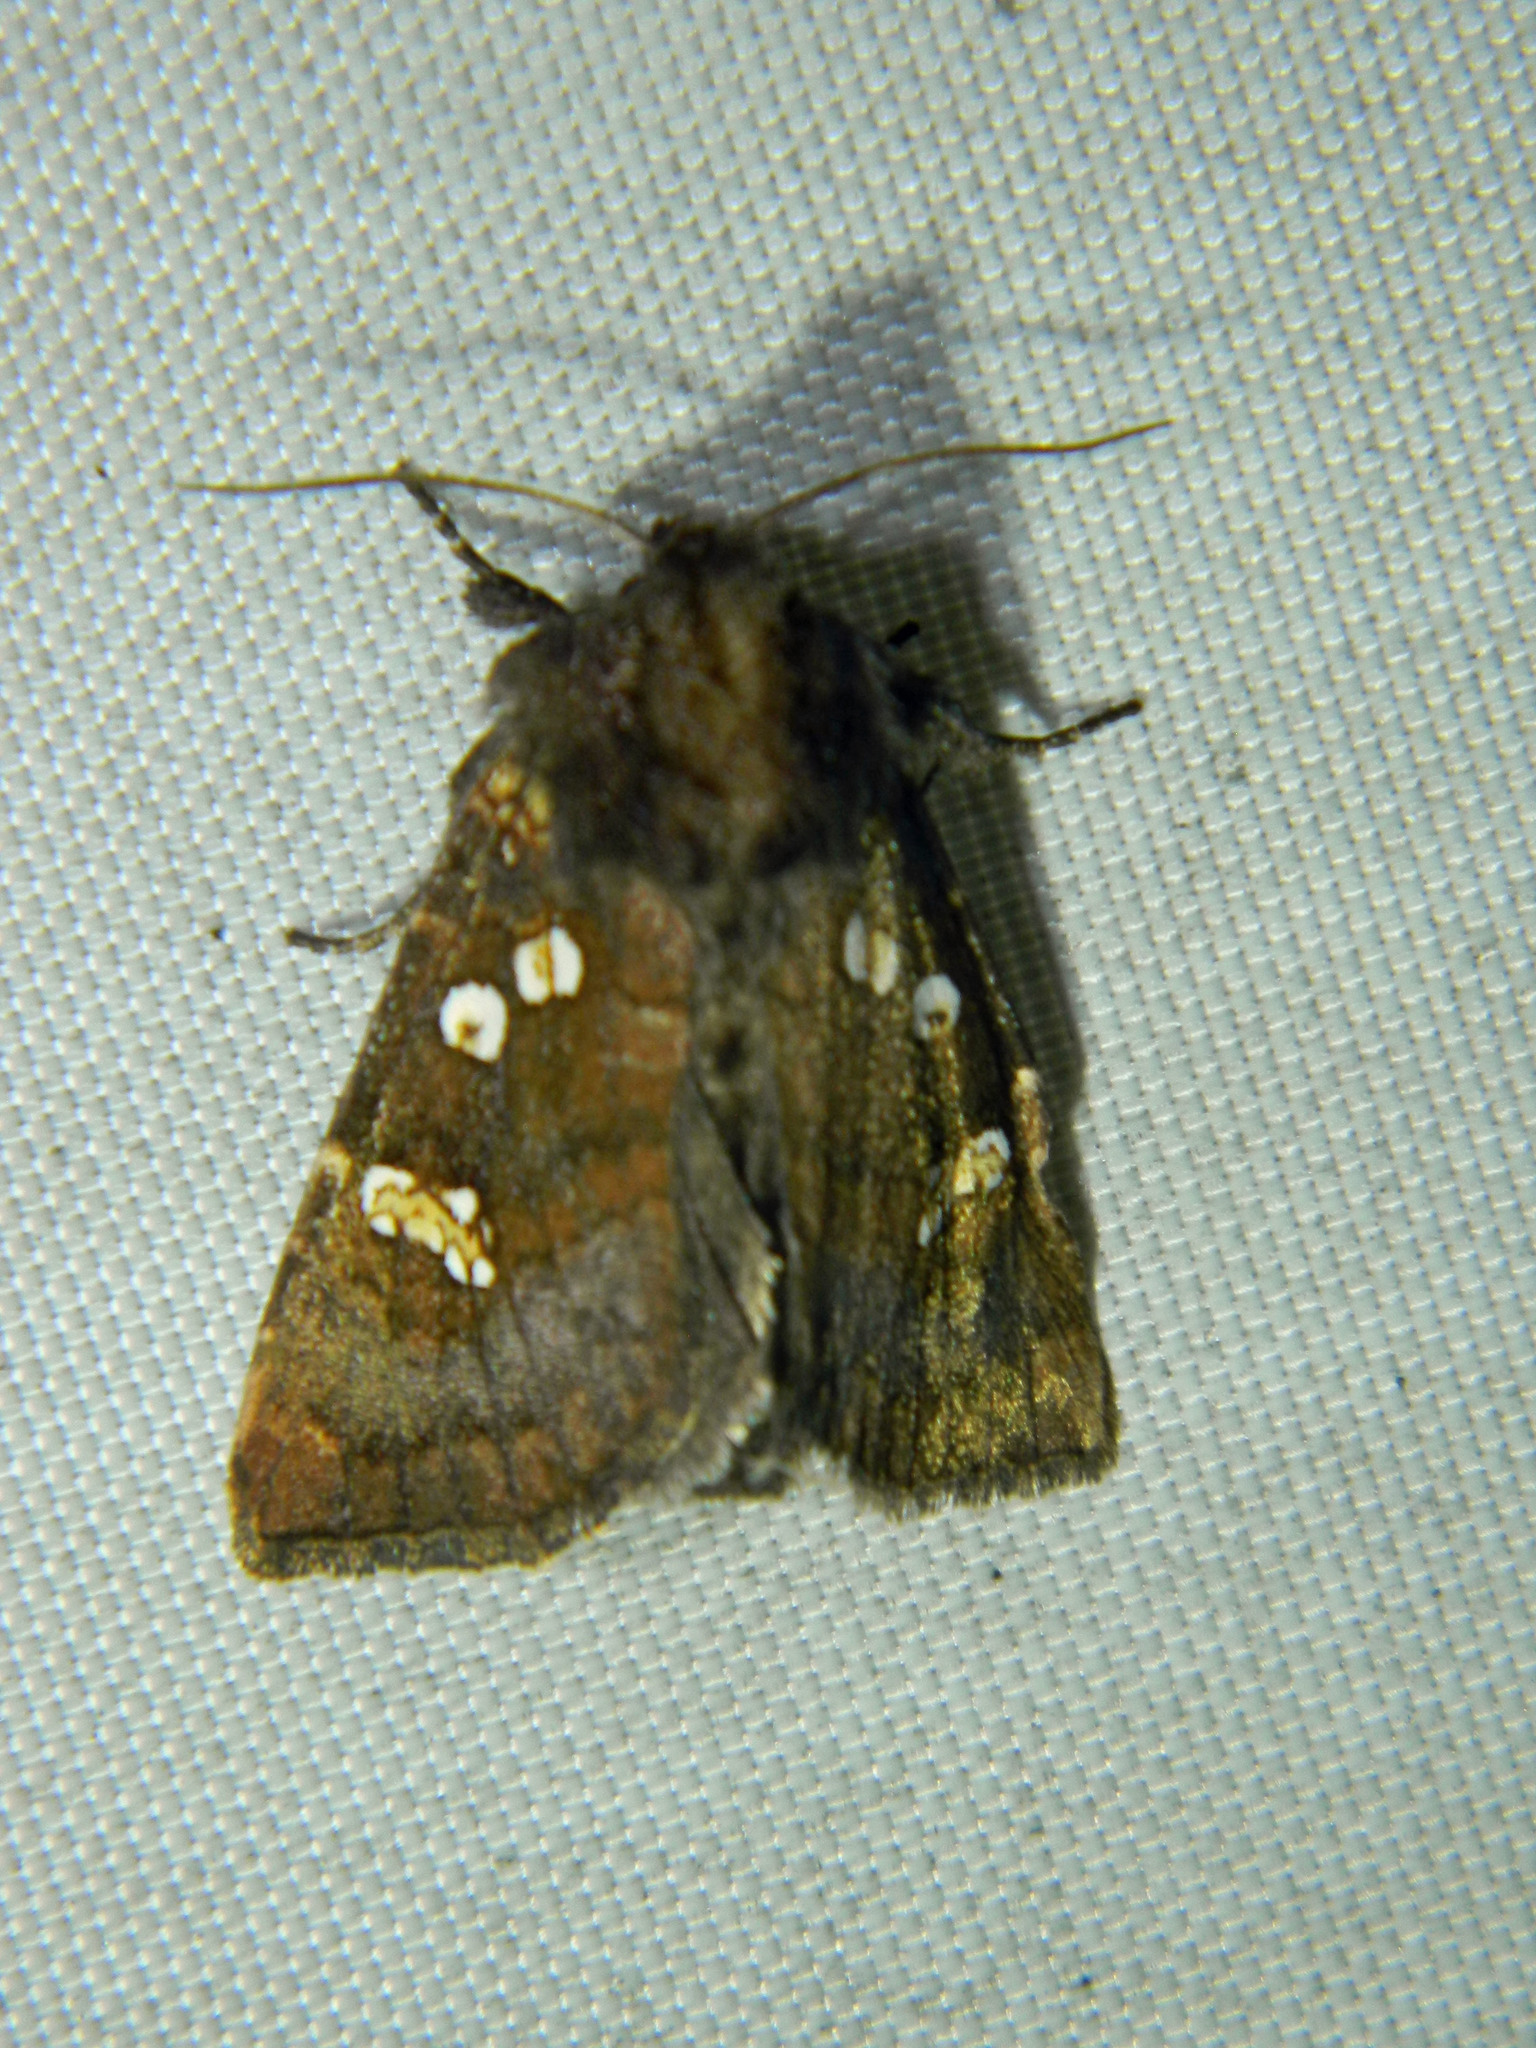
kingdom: Animalia
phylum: Arthropoda
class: Insecta
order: Lepidoptera
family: Noctuidae
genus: Papaipema
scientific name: Papaipema unimoda
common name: Meadow rue borer moth
